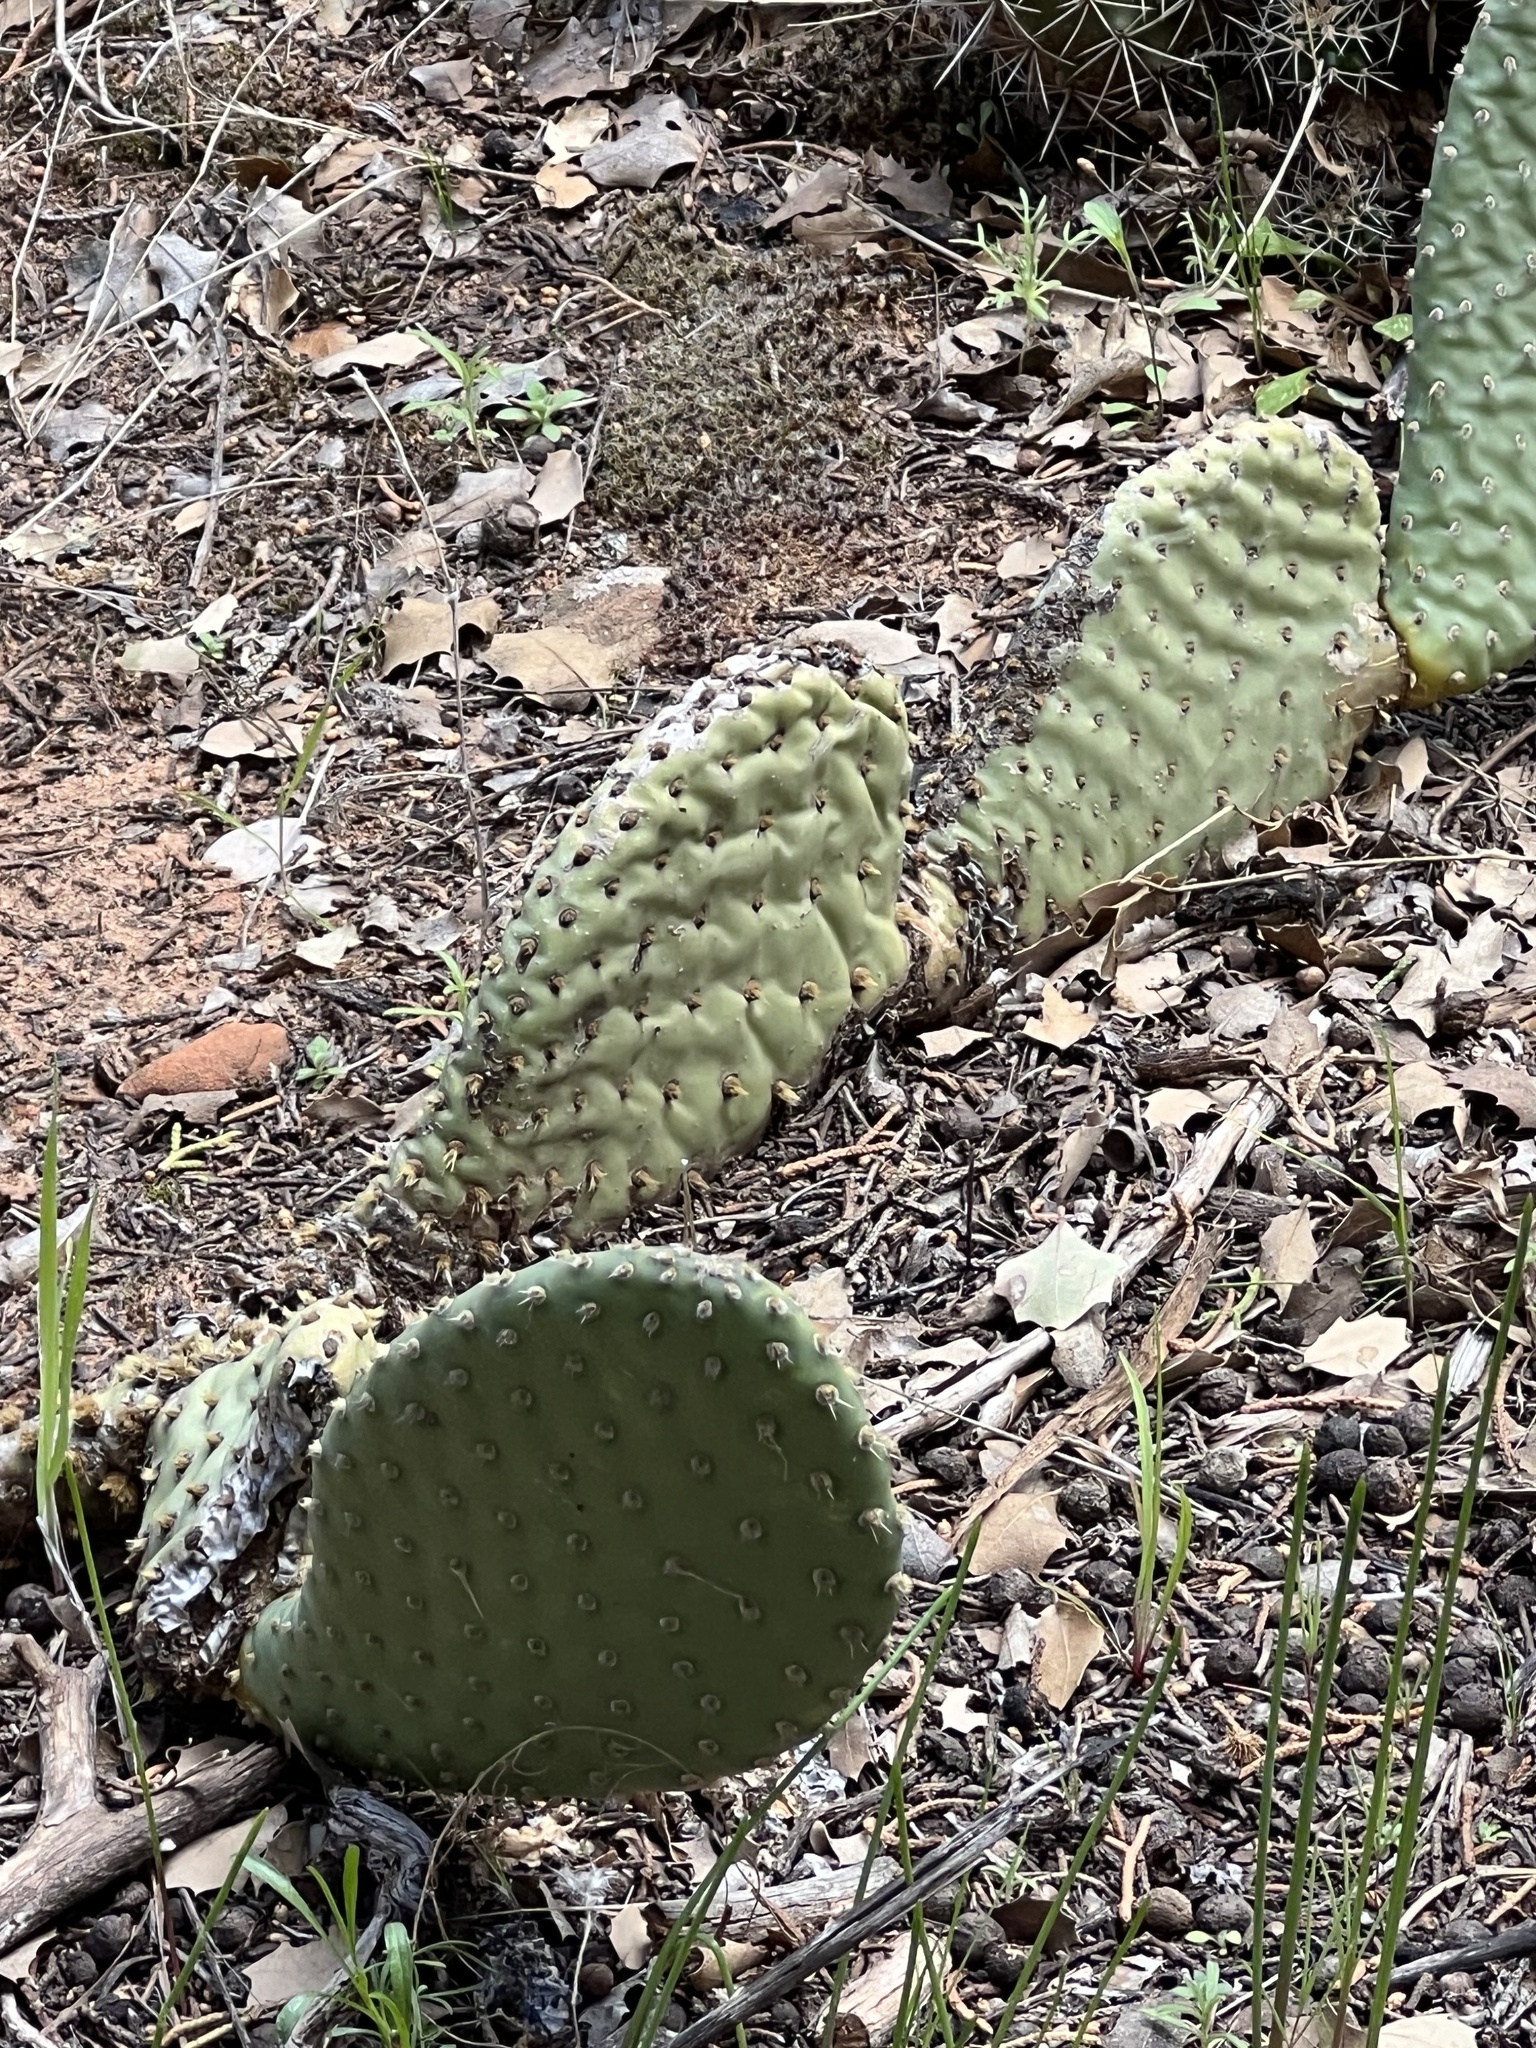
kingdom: Plantae
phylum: Tracheophyta
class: Magnoliopsida
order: Caryophyllales
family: Cactaceae
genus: Opuntia
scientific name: Opuntia aurea
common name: Golden prickly-pear
